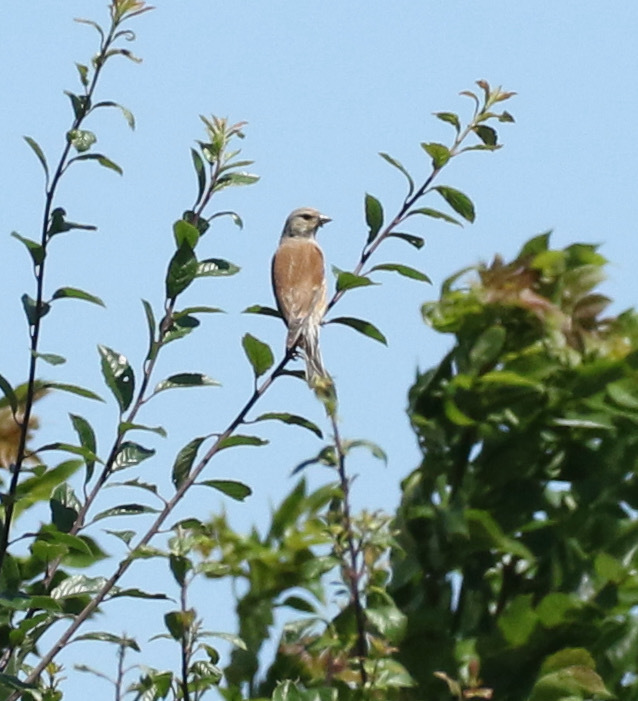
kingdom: Animalia
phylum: Chordata
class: Aves
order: Passeriformes
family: Fringillidae
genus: Linaria
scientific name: Linaria cannabina
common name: Common linnet
